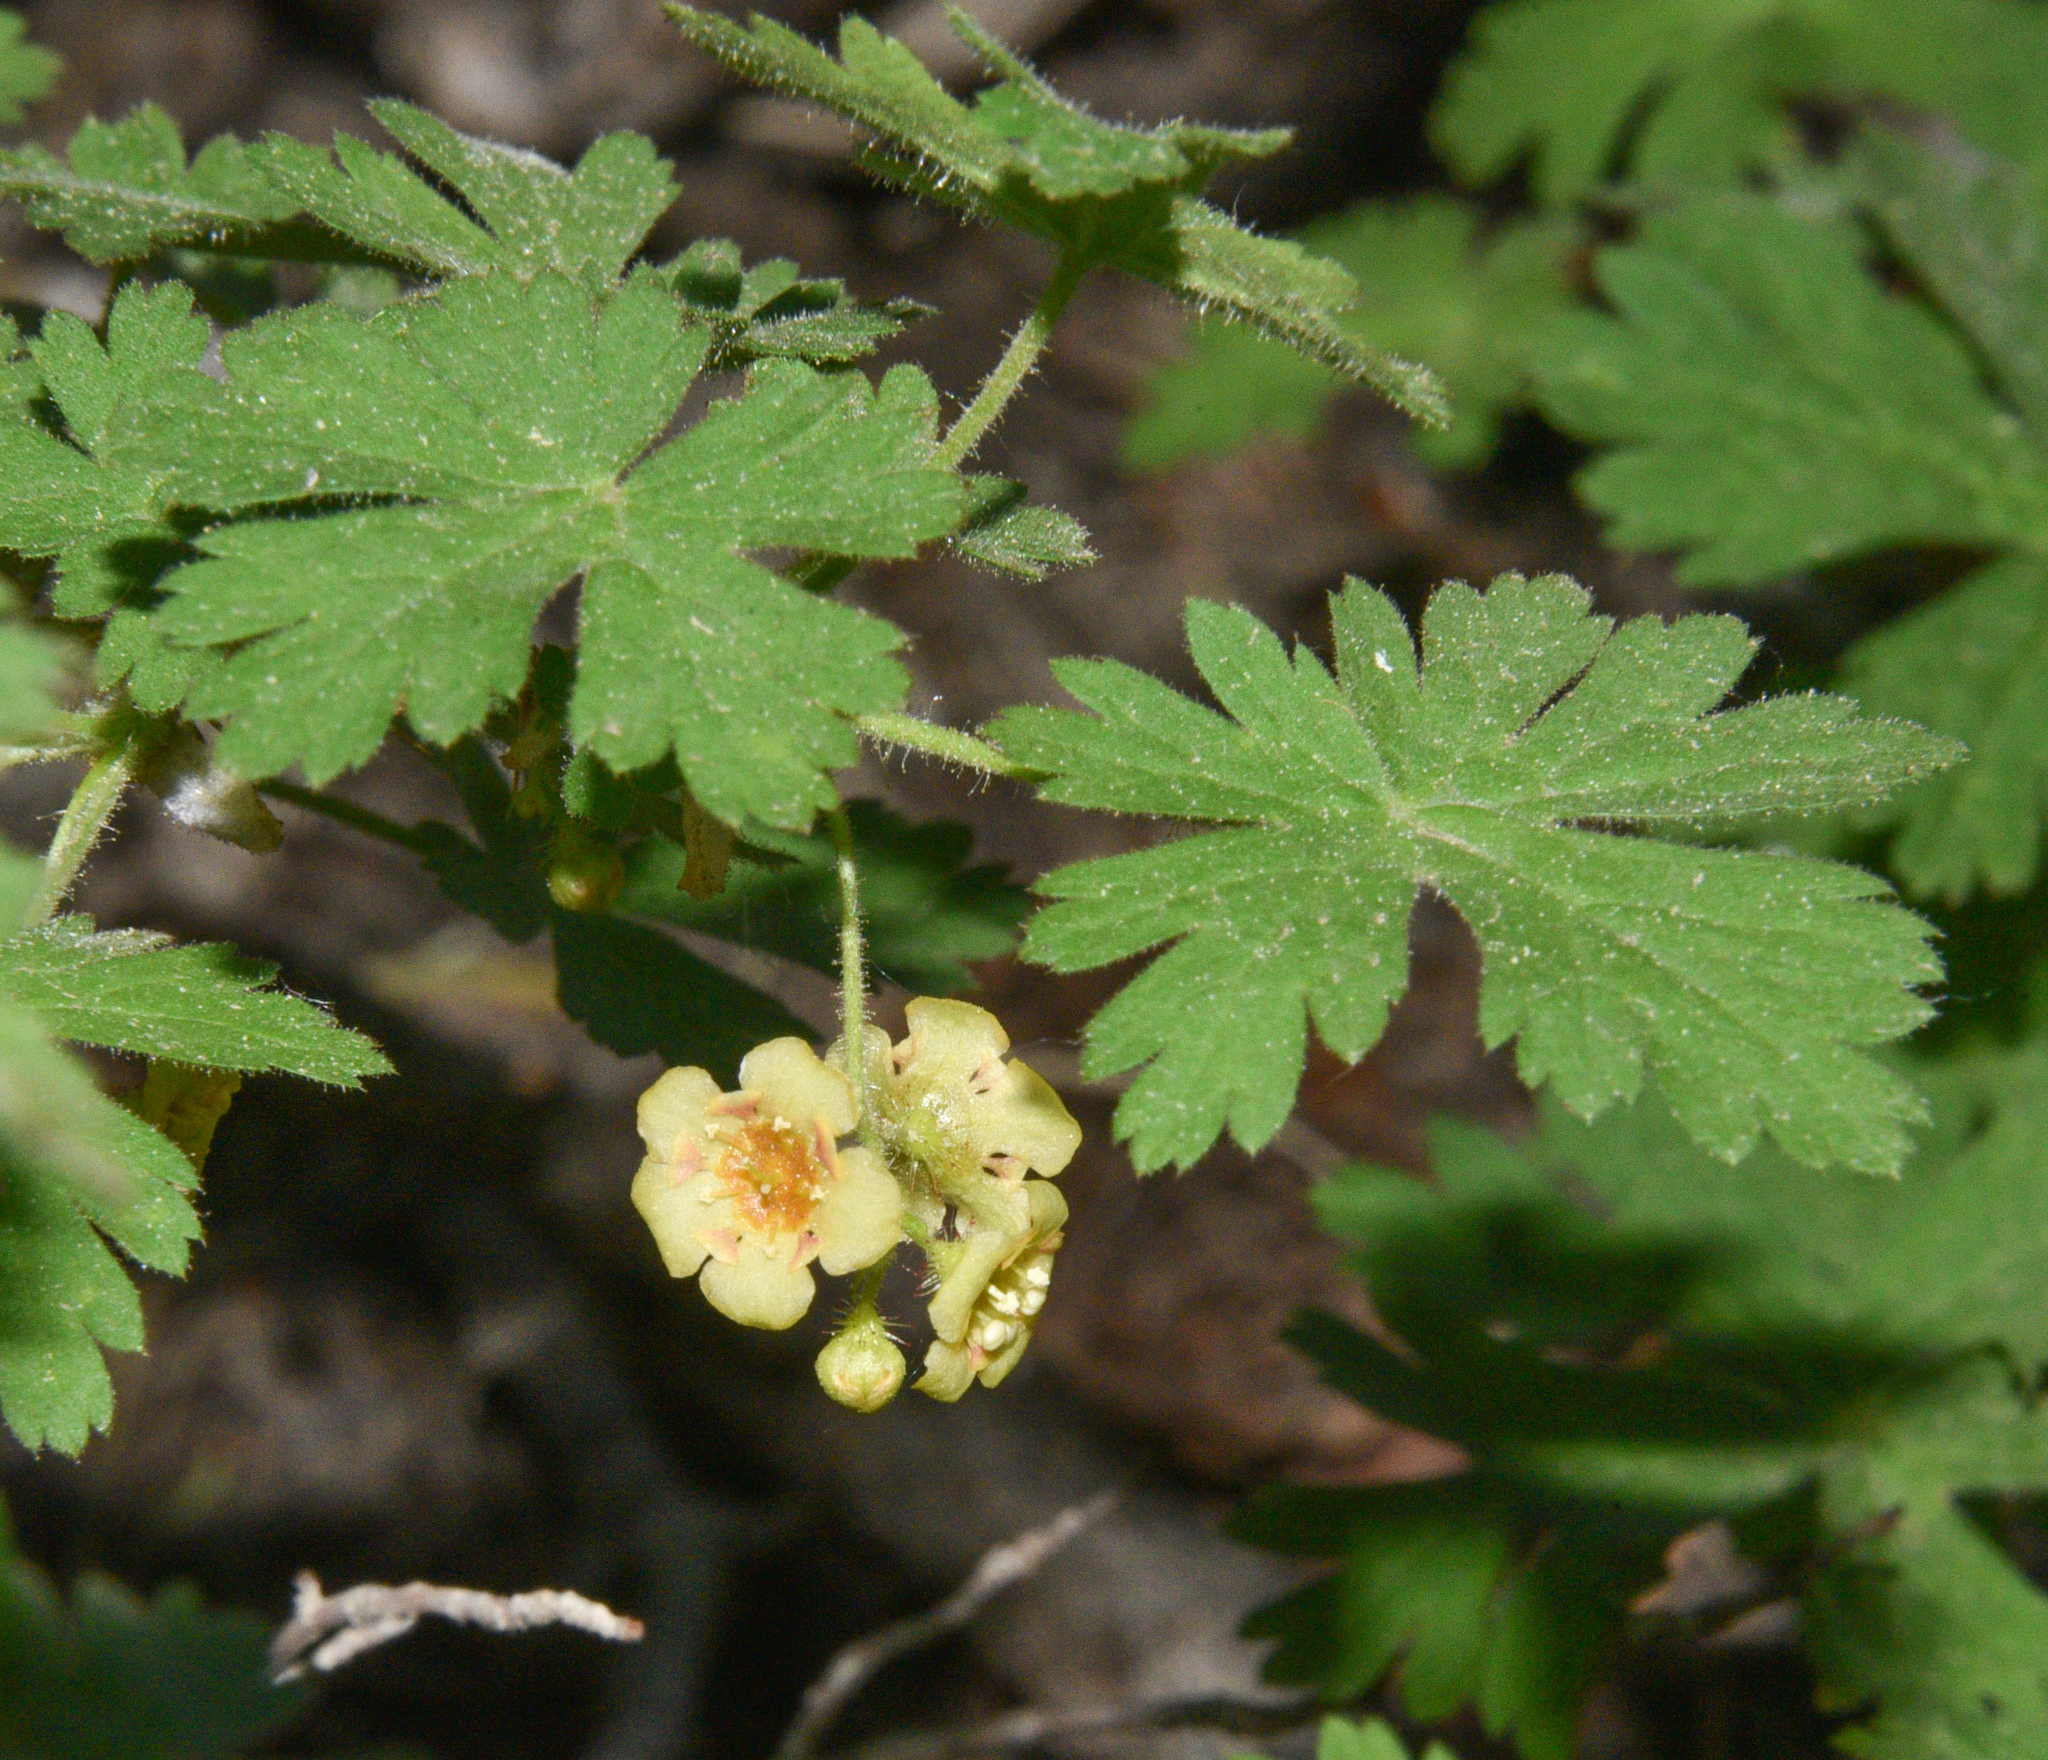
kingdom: Plantae
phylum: Tracheophyta
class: Magnoliopsida
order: Saxifragales
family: Grossulariaceae
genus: Ribes
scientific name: Ribes montigenum
